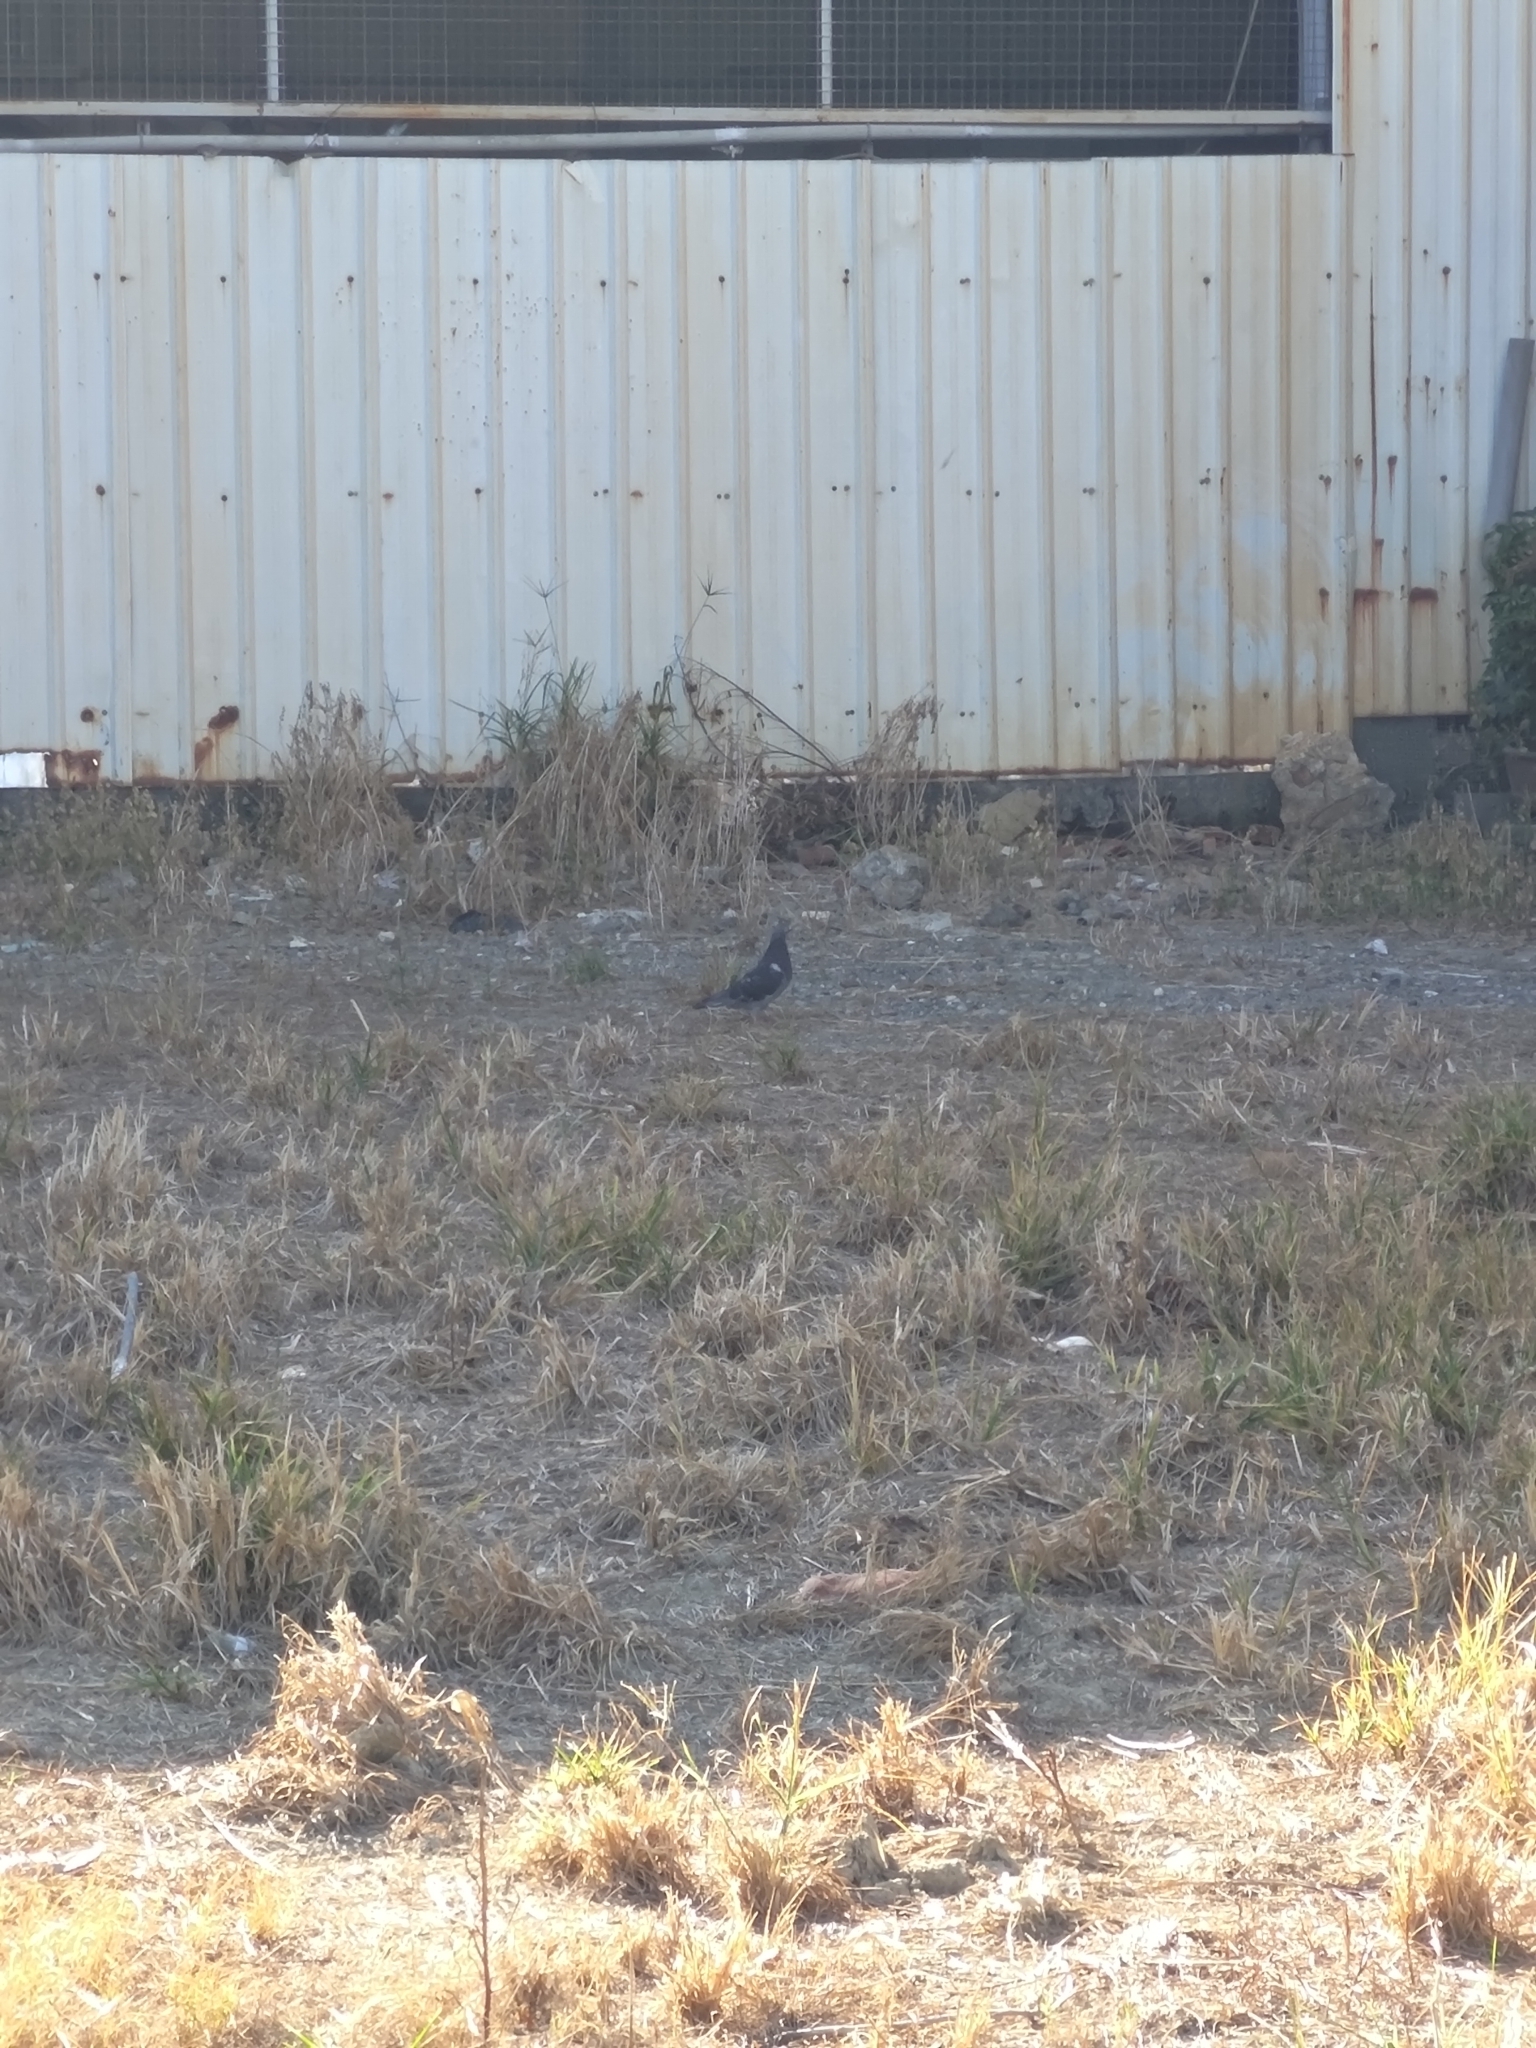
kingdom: Animalia
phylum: Chordata
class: Aves
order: Columbiformes
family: Columbidae
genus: Columba
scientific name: Columba livia
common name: Rock pigeon
